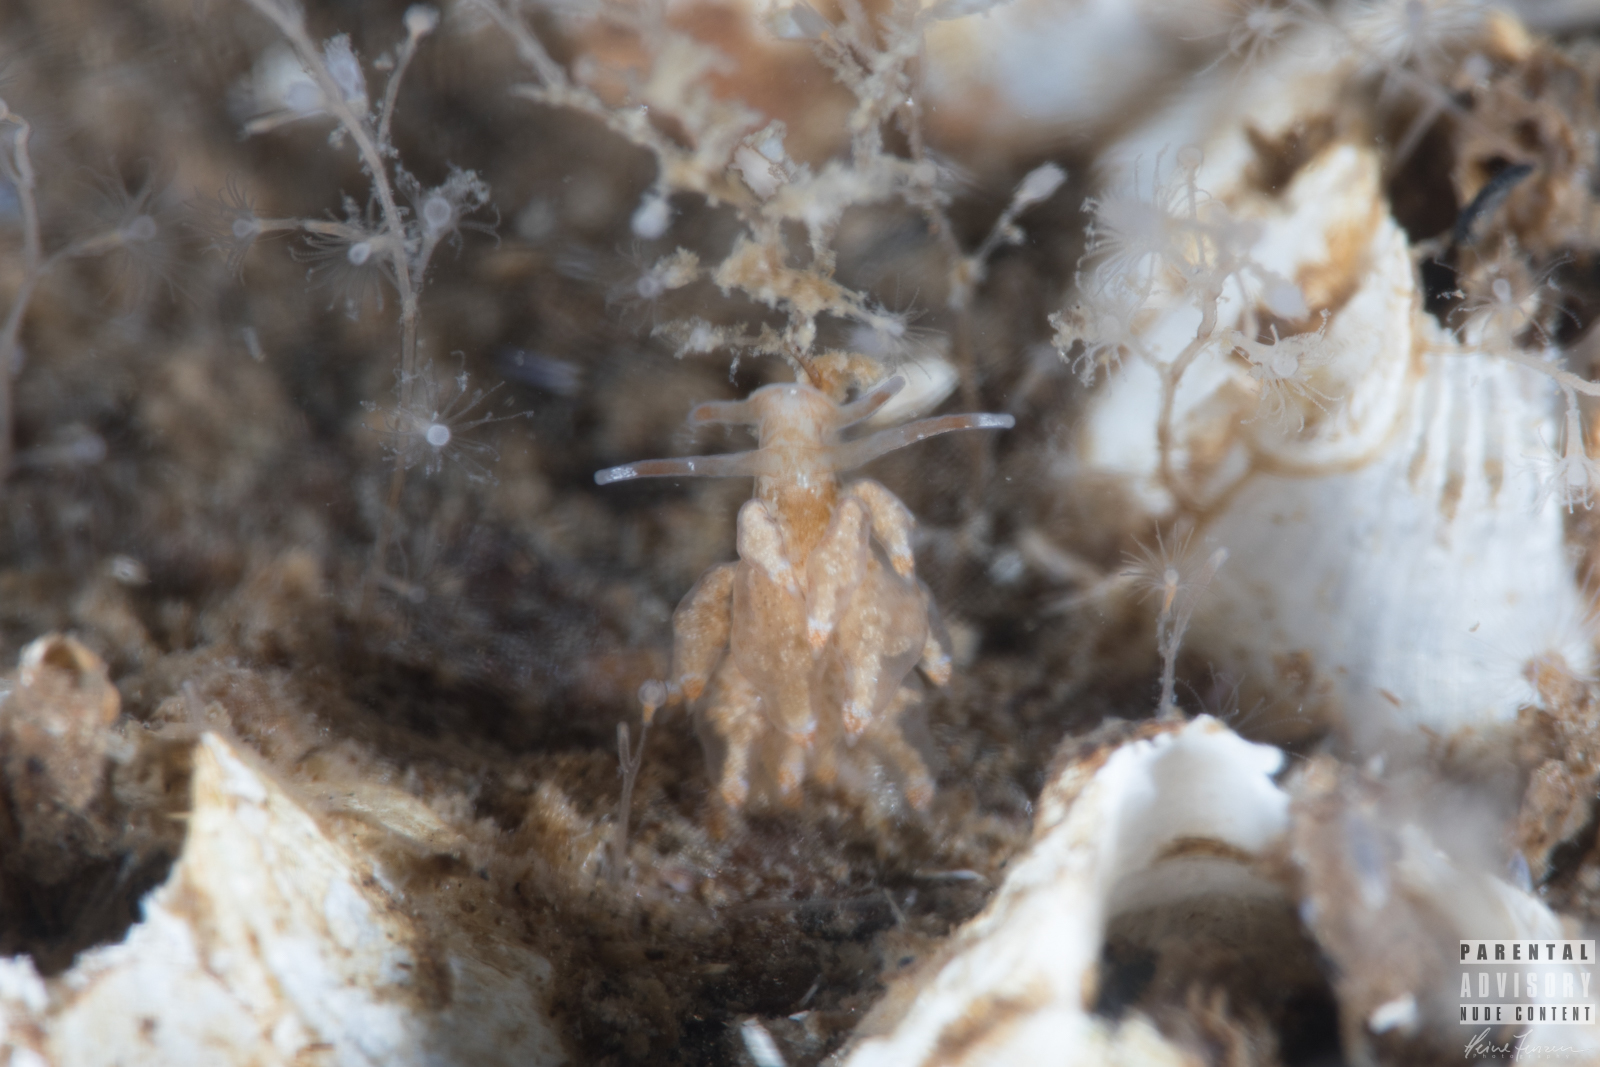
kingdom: Animalia
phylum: Mollusca
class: Gastropoda
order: Nudibranchia
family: Eubranchidae
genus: Eubranchus
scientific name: Eubranchus exiguus
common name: Balloon aeolis
